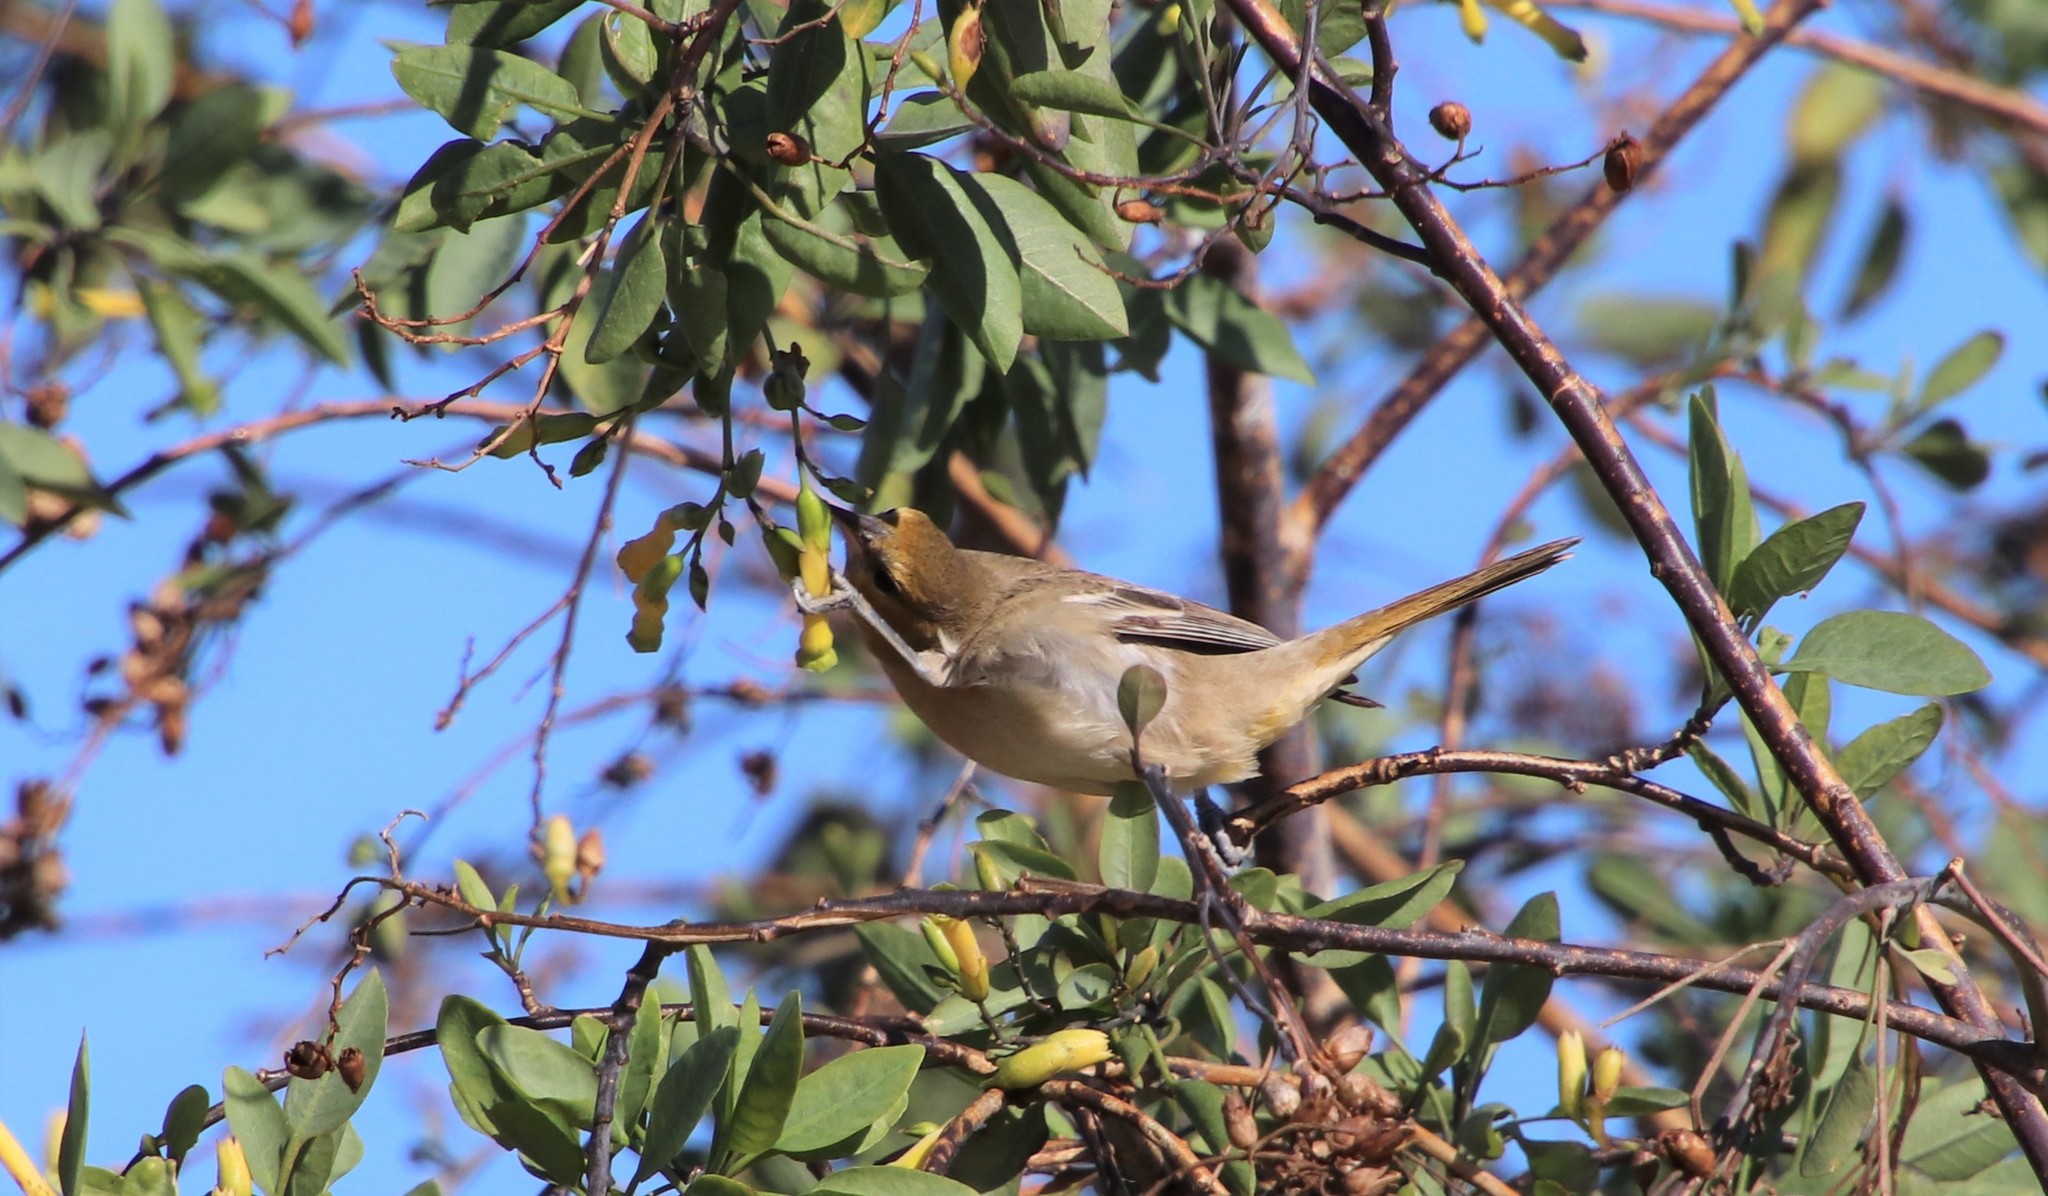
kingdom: Animalia
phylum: Chordata
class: Aves
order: Passeriformes
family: Icteridae
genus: Icterus
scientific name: Icterus bullockii
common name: Bullock's oriole
